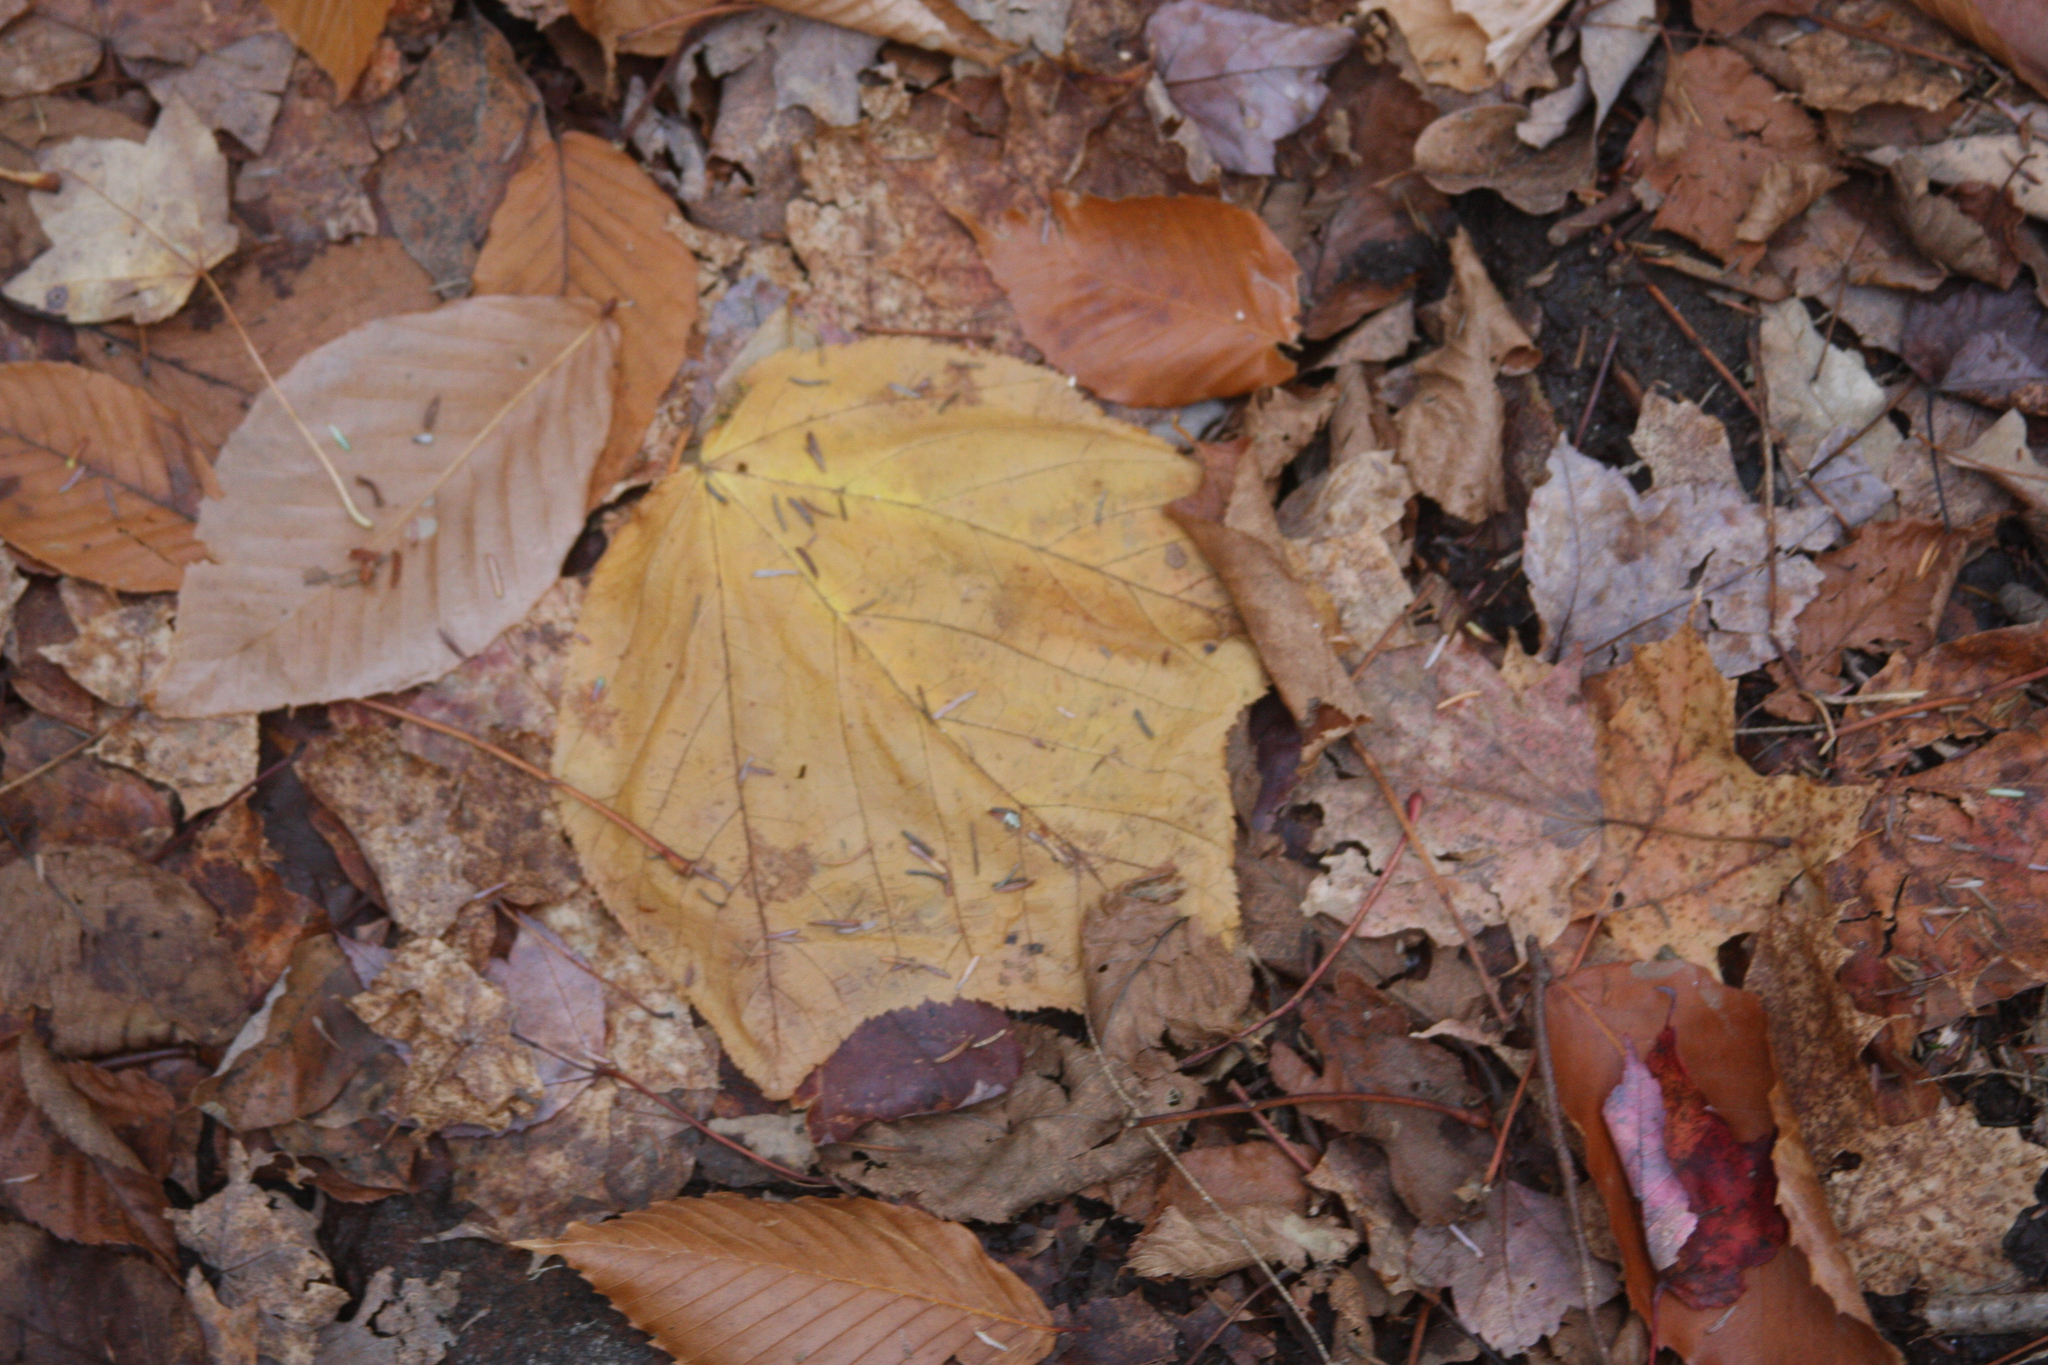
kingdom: Plantae
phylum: Tracheophyta
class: Magnoliopsida
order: Sapindales
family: Sapindaceae
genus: Acer
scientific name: Acer pensylvanicum
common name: Moosewood
